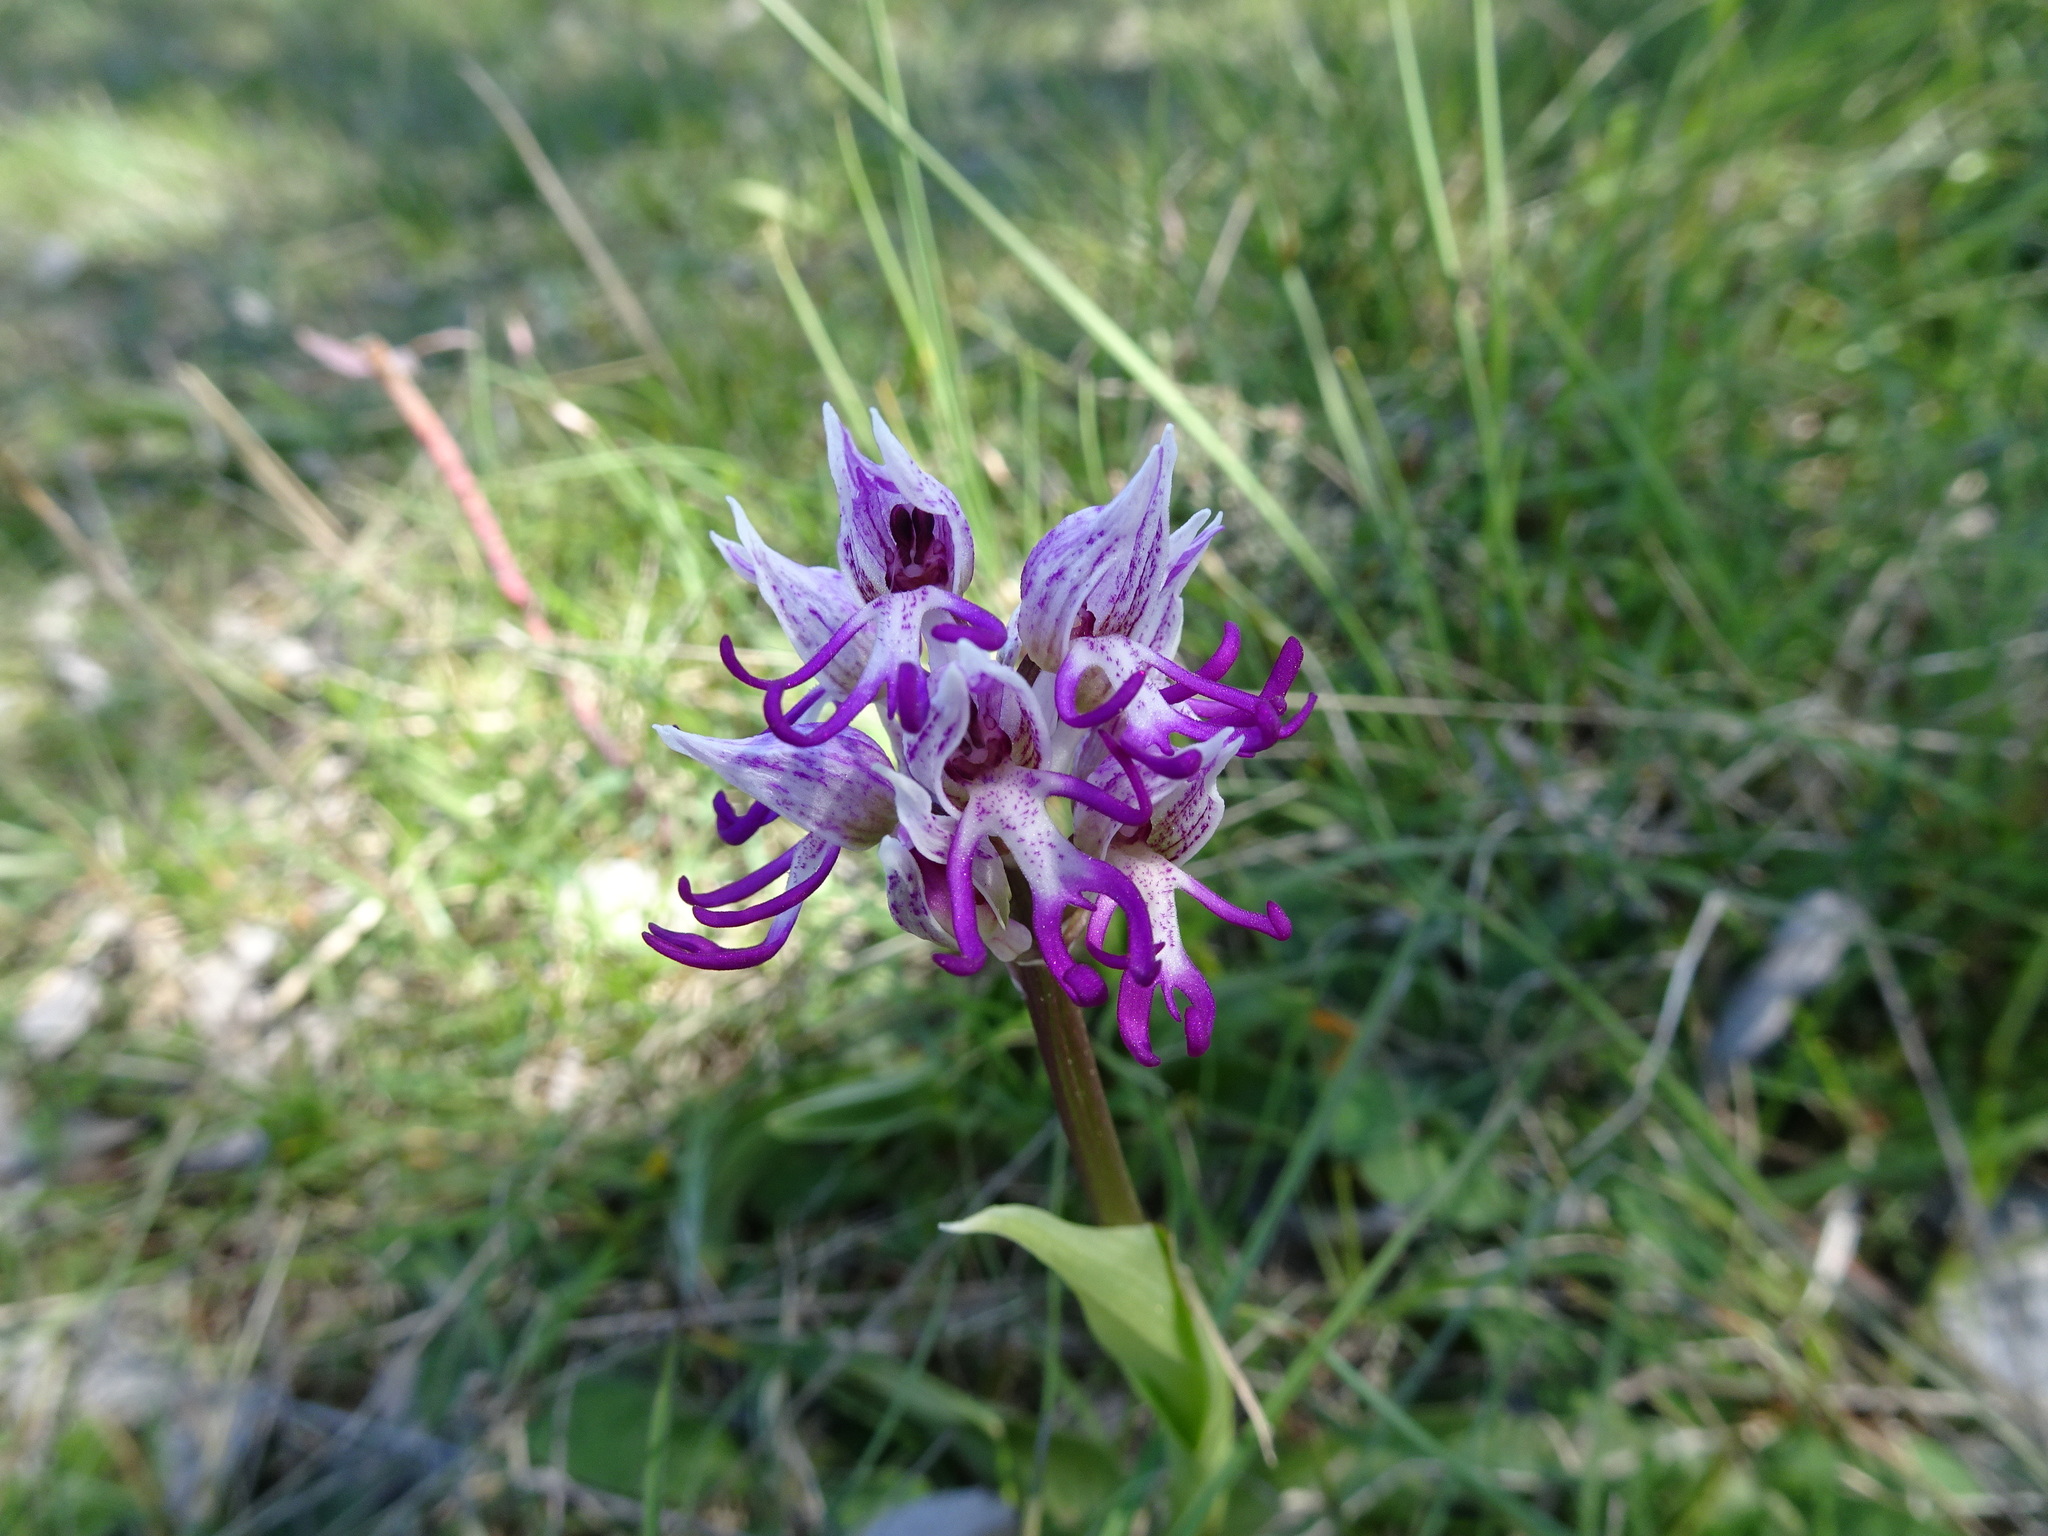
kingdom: Plantae
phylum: Tracheophyta
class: Liliopsida
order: Asparagales
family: Orchidaceae
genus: Orchis
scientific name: Orchis simia
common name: Monkey orchid
